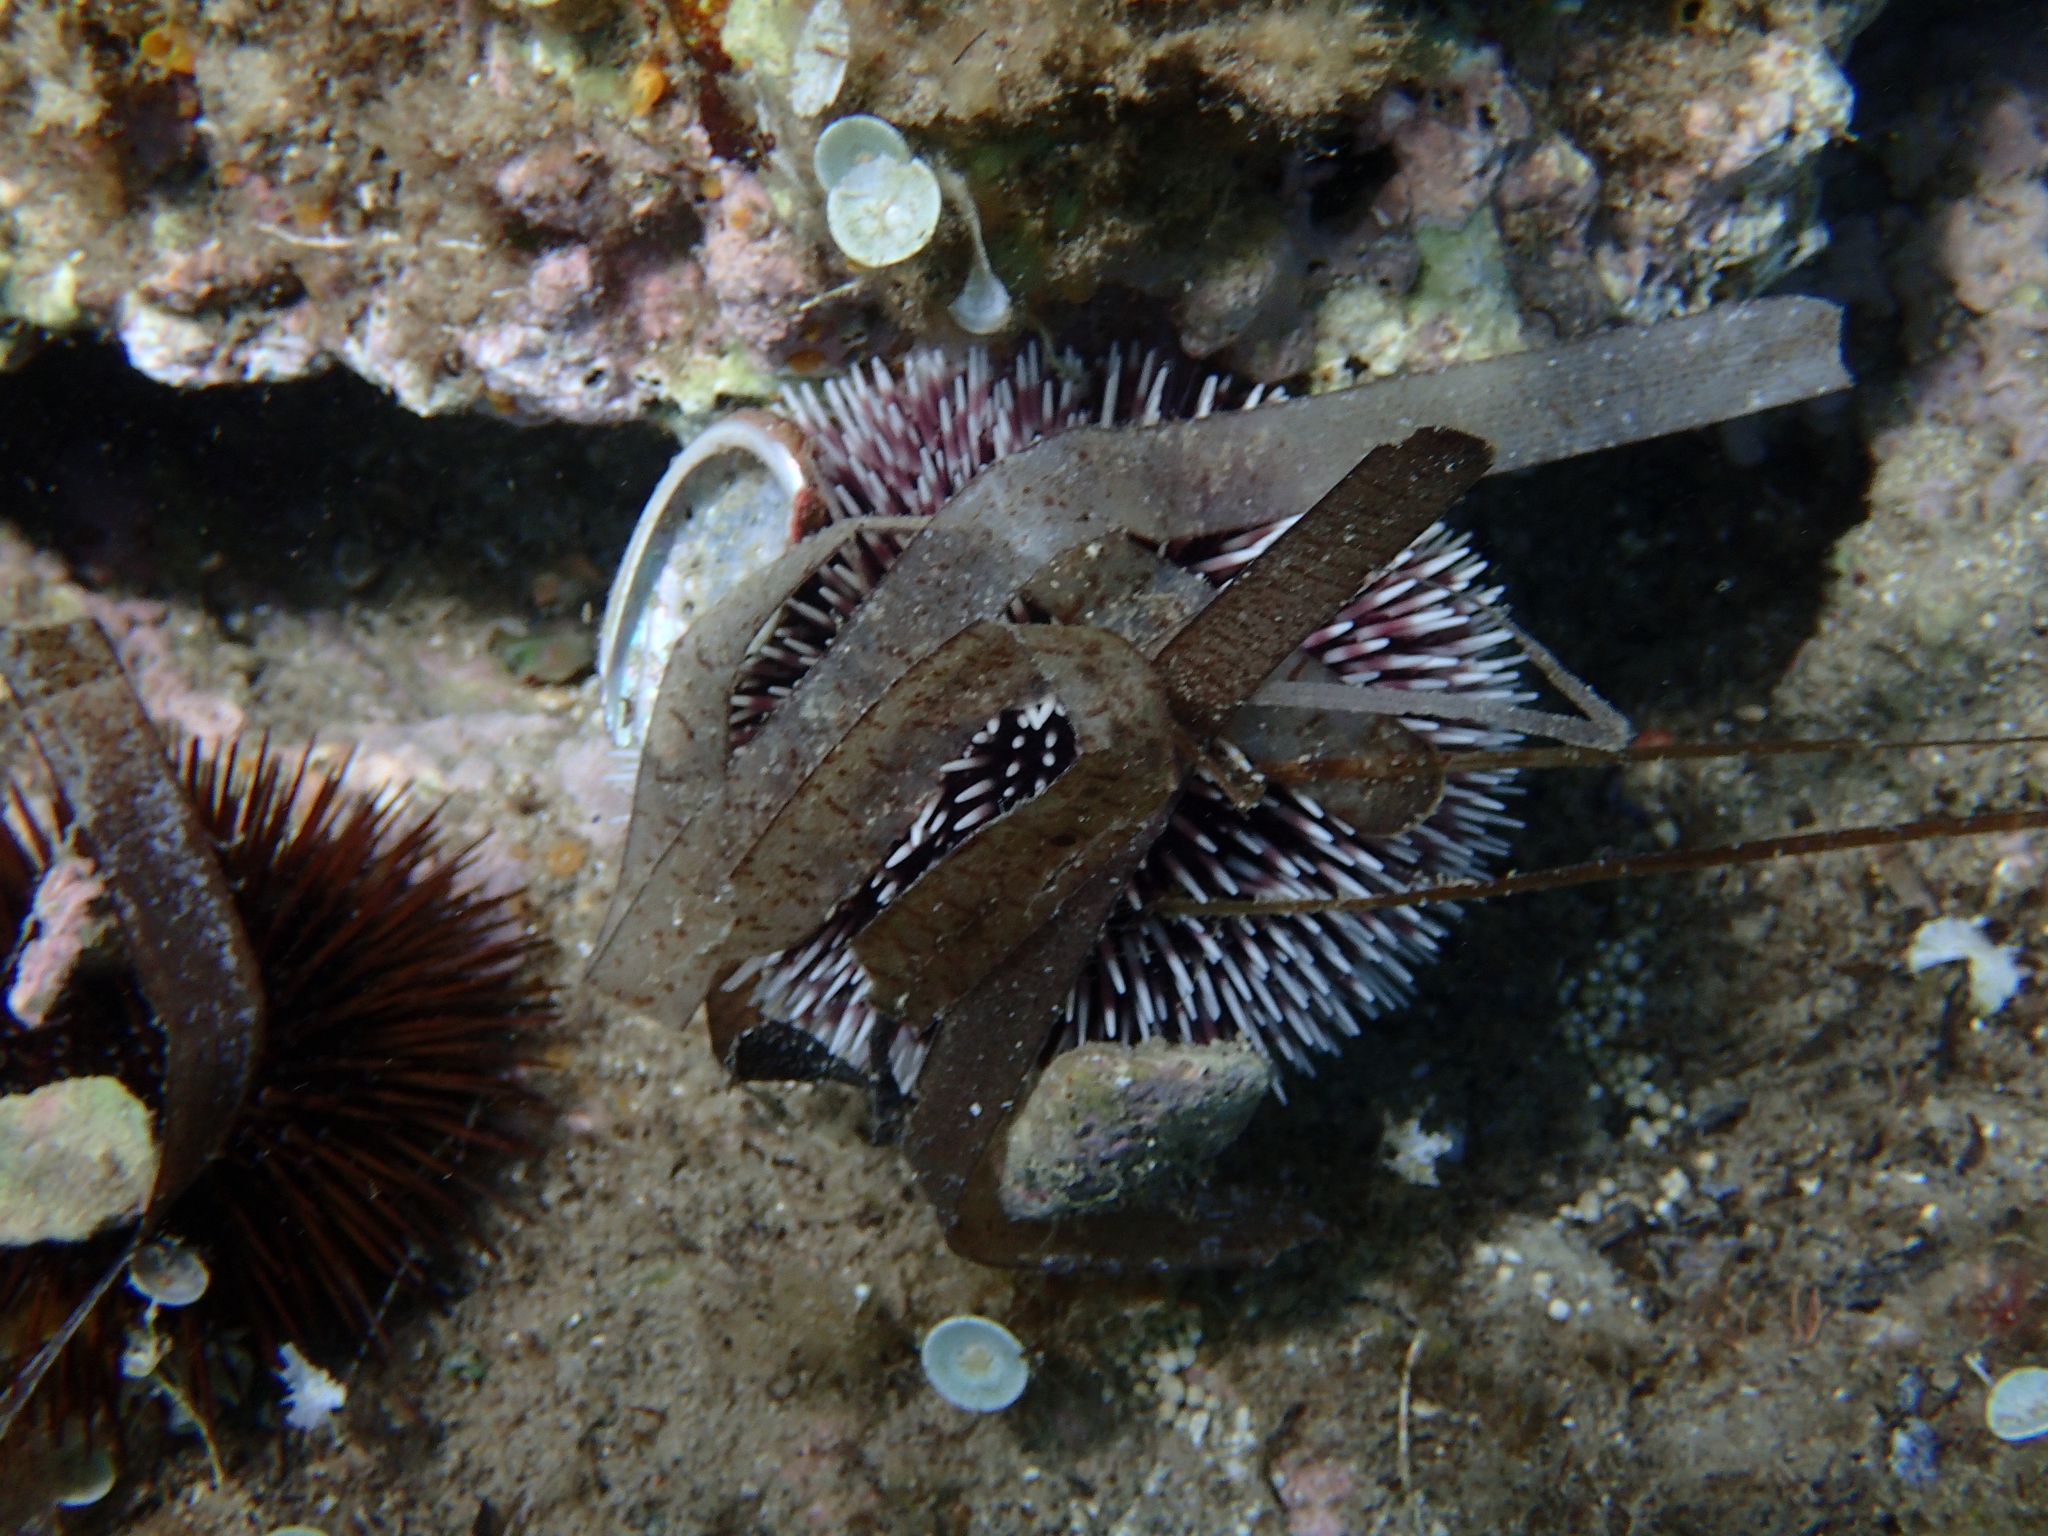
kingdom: Animalia
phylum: Echinodermata
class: Echinoidea
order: Camarodonta
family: Toxopneustidae
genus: Sphaerechinus
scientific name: Sphaerechinus granularis
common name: Violet sea urchin
